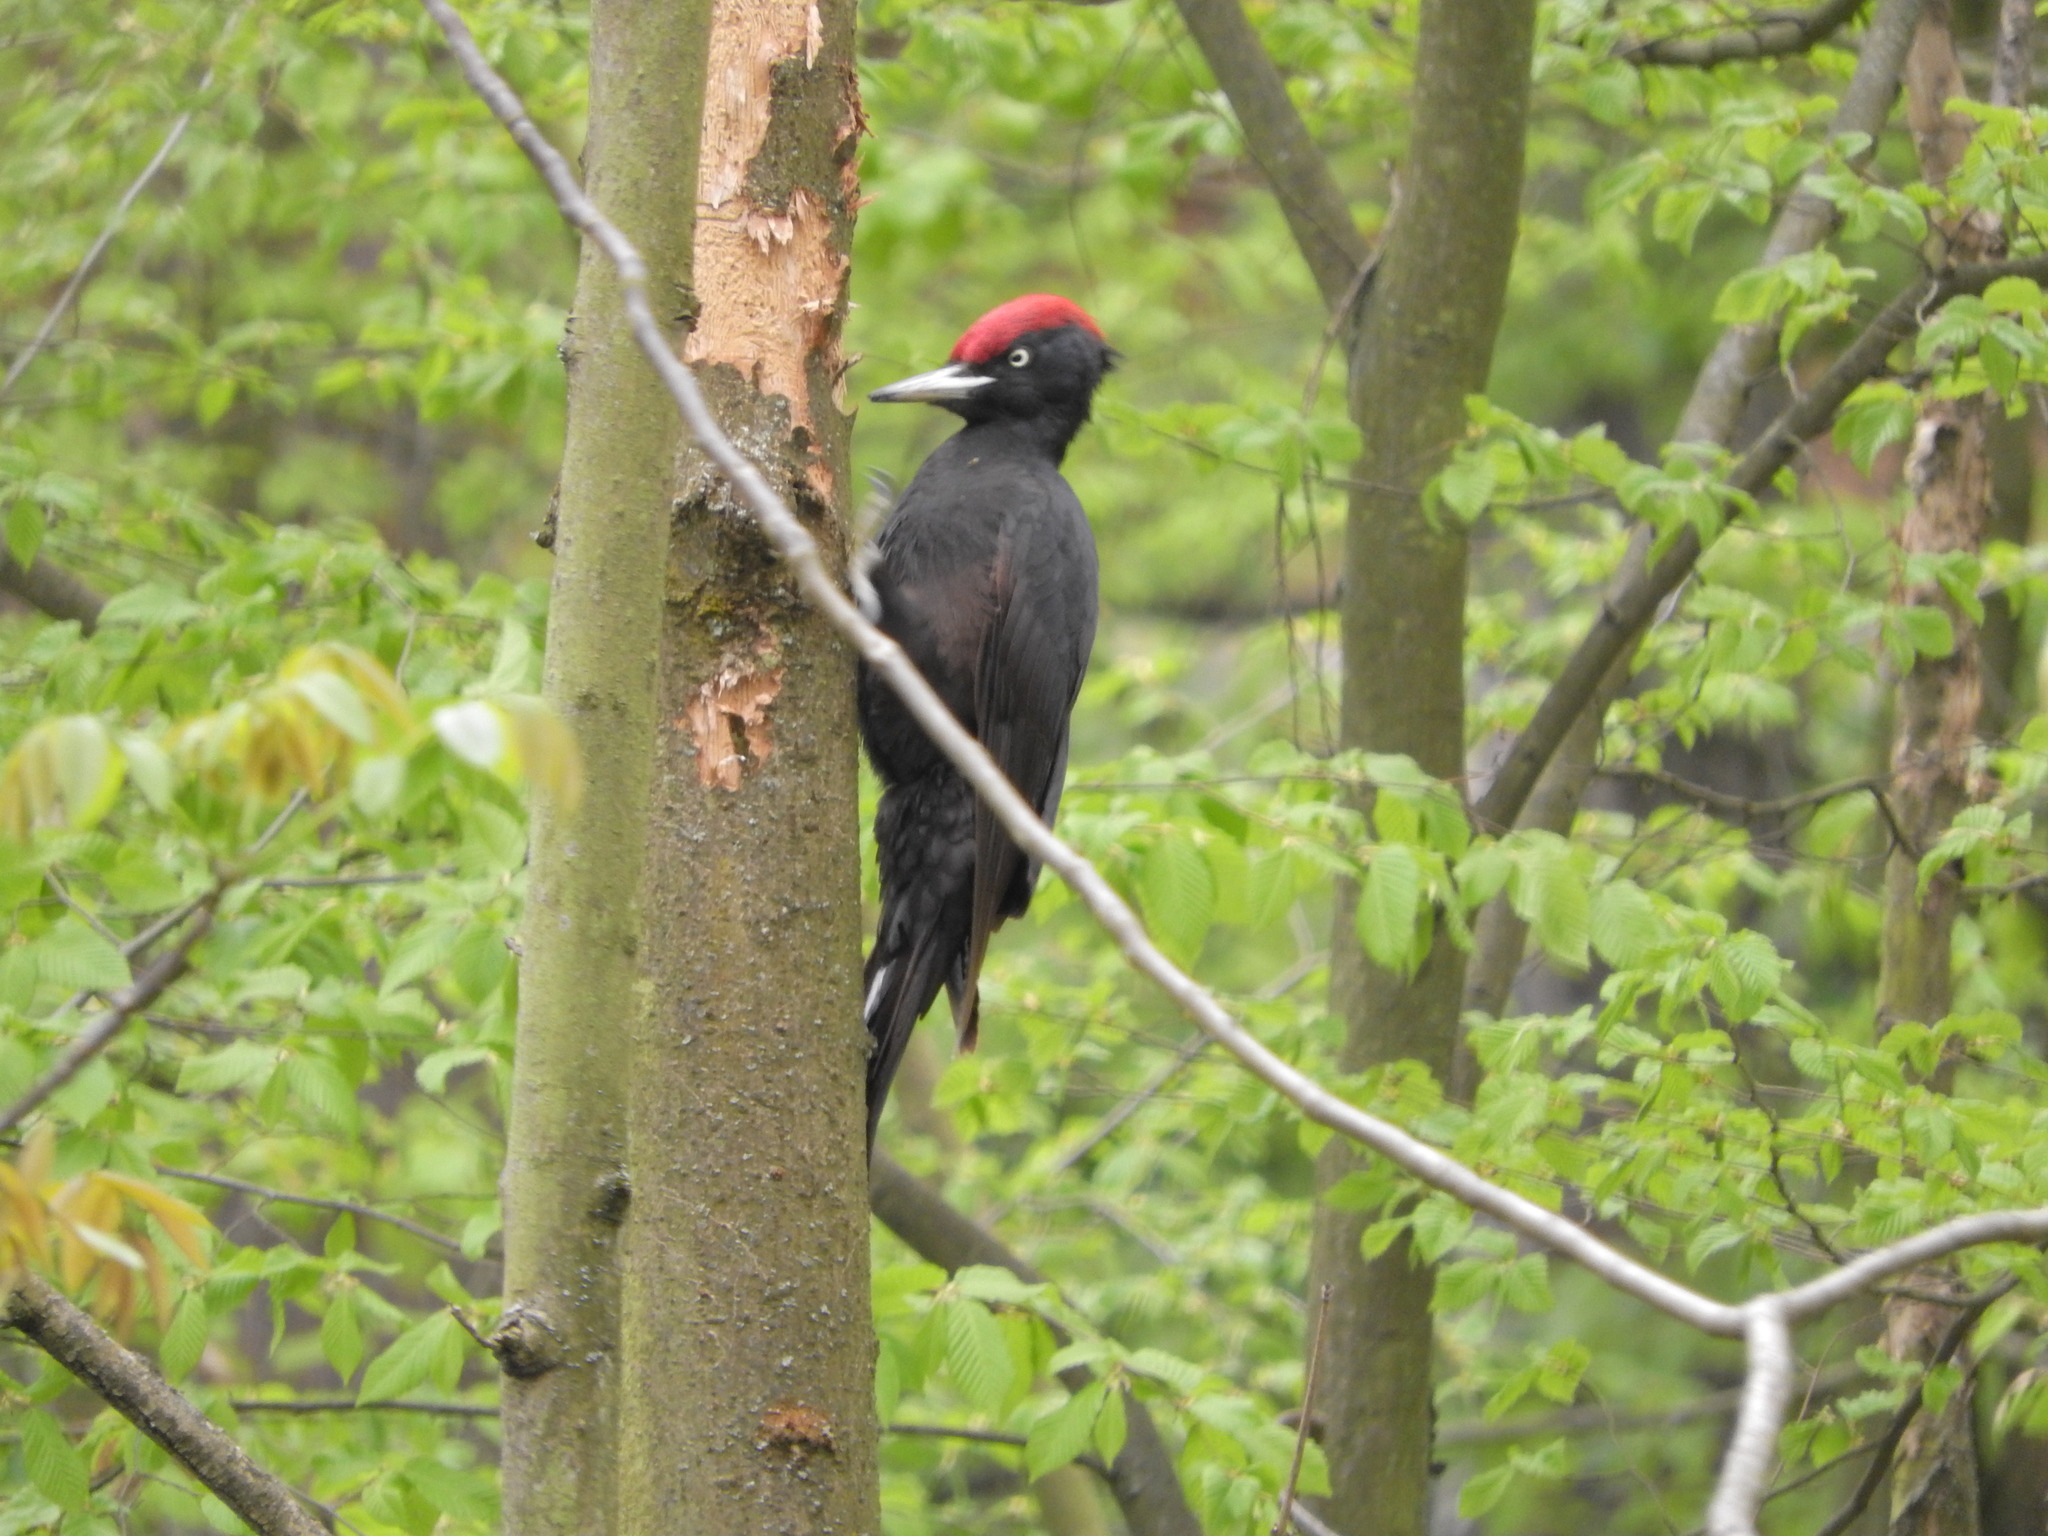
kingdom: Animalia
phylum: Chordata
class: Aves
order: Piciformes
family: Picidae
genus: Dryocopus
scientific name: Dryocopus martius
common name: Black woodpecker
